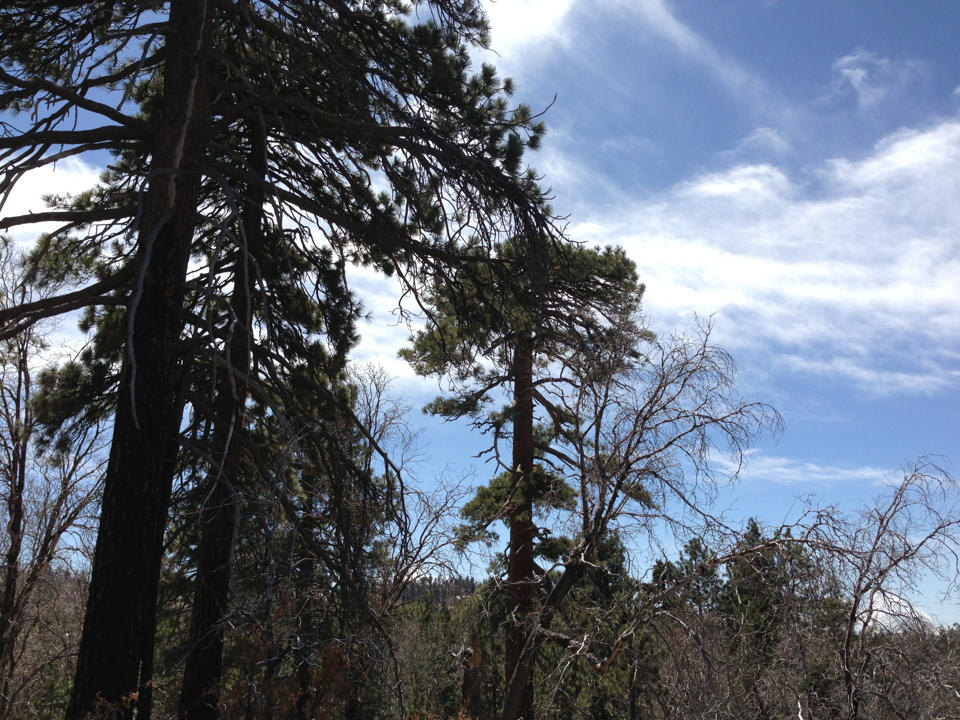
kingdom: Plantae
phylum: Tracheophyta
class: Pinopsida
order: Pinales
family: Pinaceae
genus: Pinus
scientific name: Pinus jeffreyi
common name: Jeffrey pine
